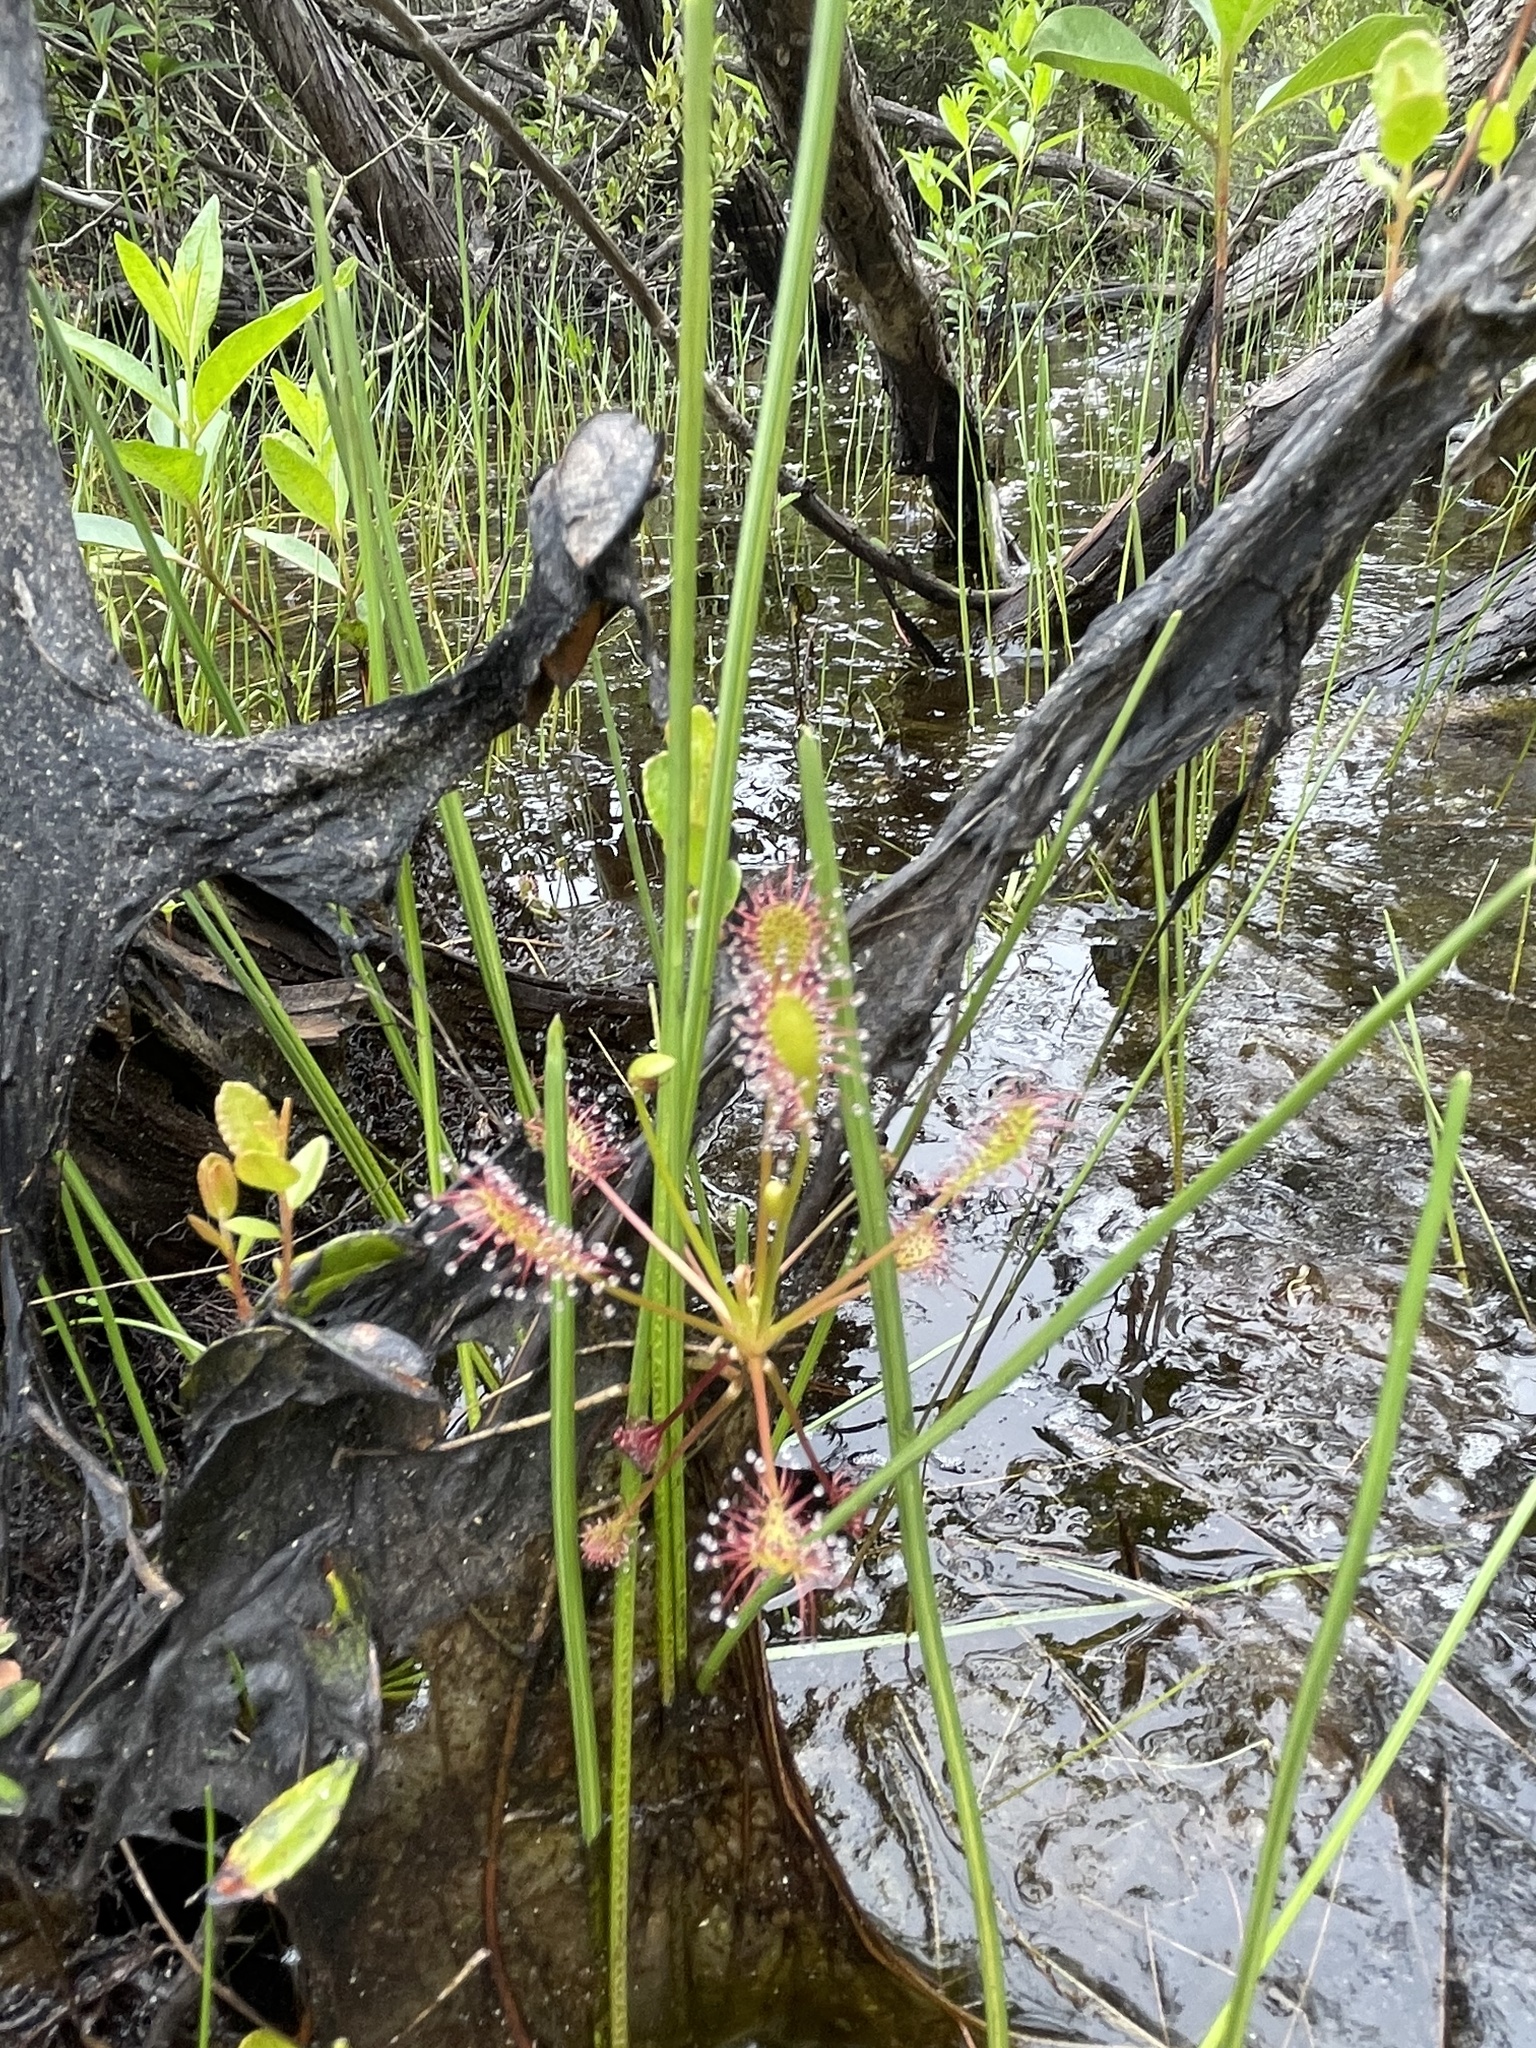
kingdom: Plantae
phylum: Tracheophyta
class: Magnoliopsida
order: Caryophyllales
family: Droseraceae
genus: Drosera
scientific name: Drosera intermedia
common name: Oblong-leaved sundew
